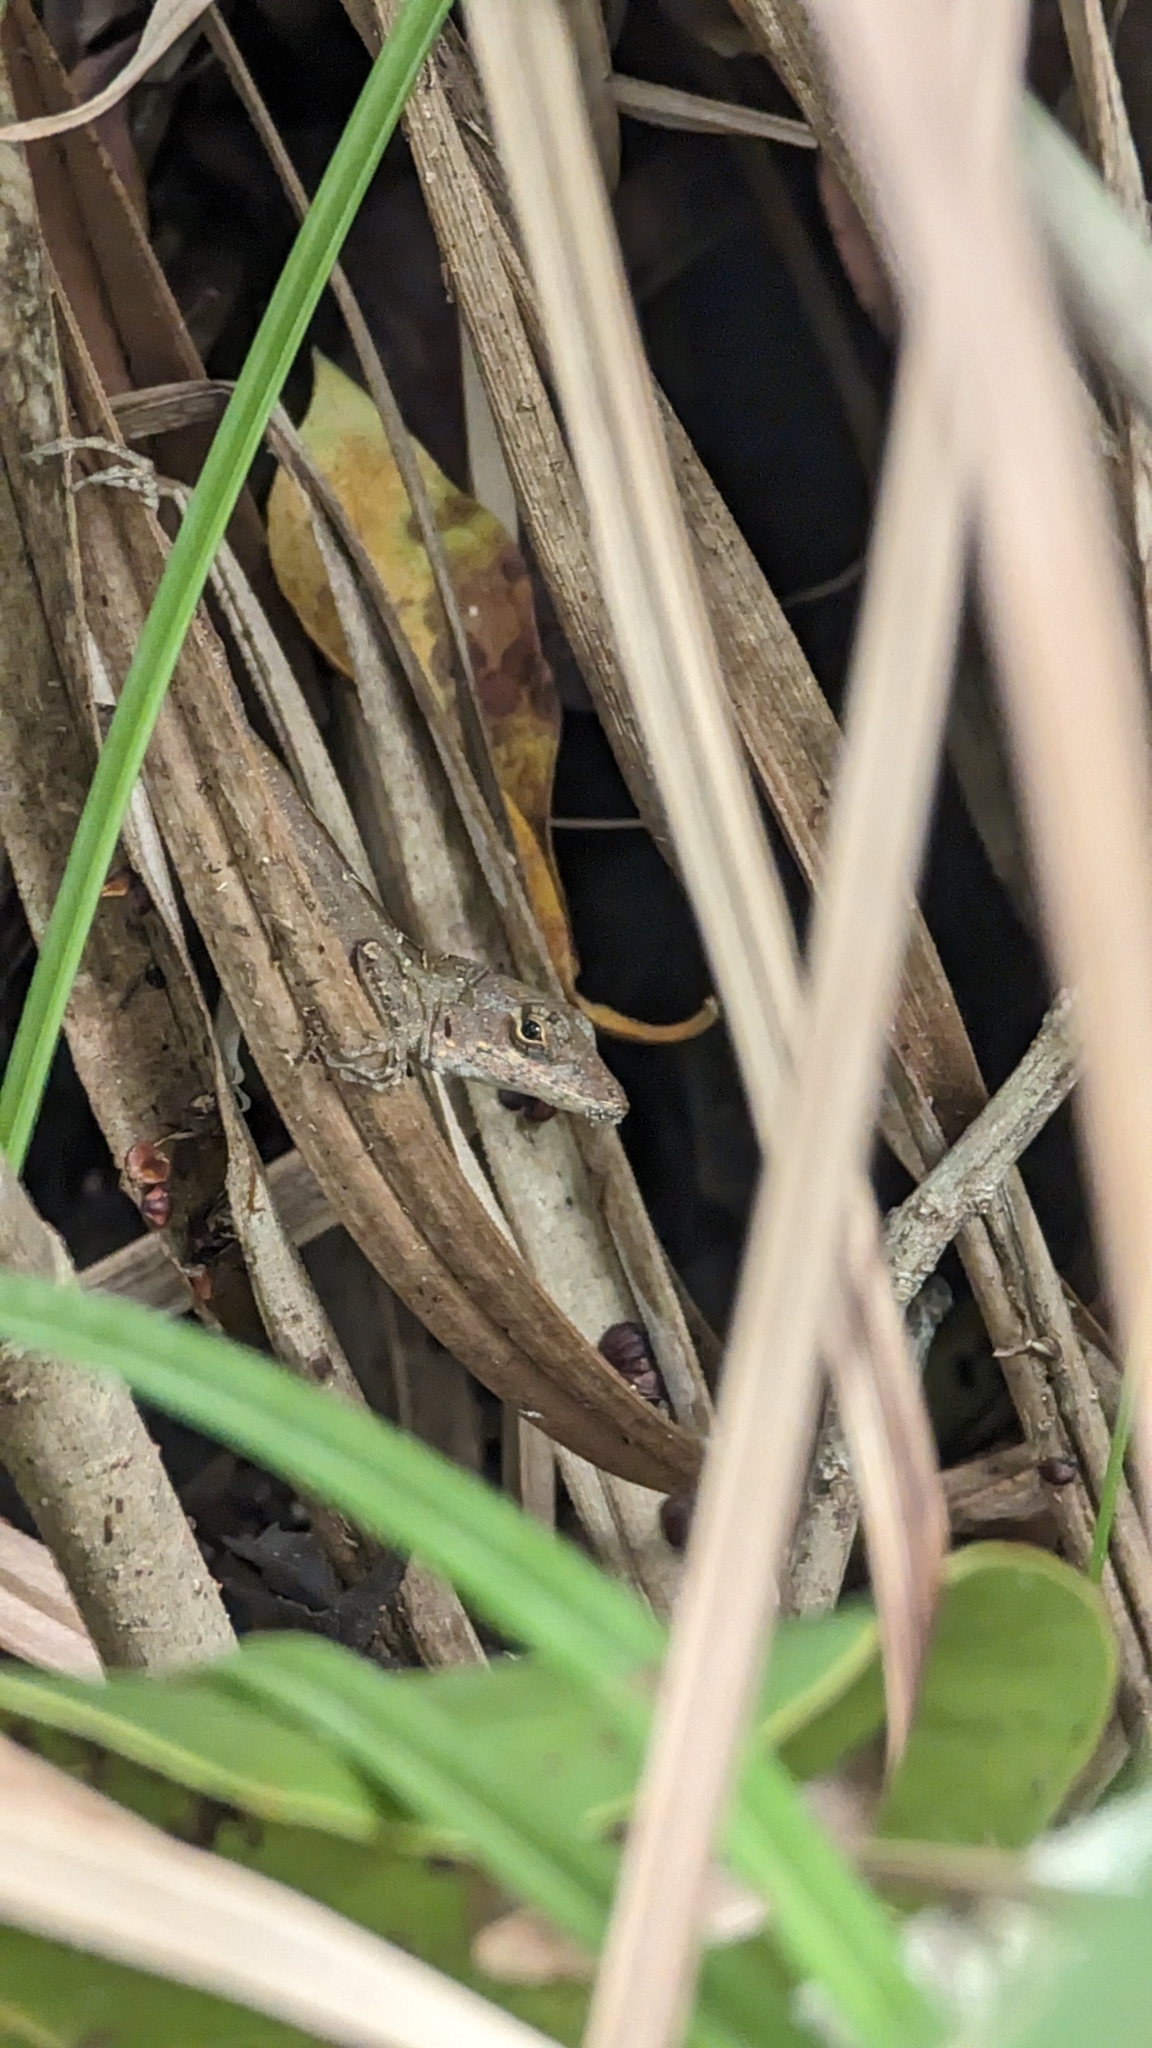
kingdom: Animalia
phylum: Chordata
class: Squamata
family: Dactyloidae
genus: Anolis
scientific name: Anolis sagrei
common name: Brown anole
